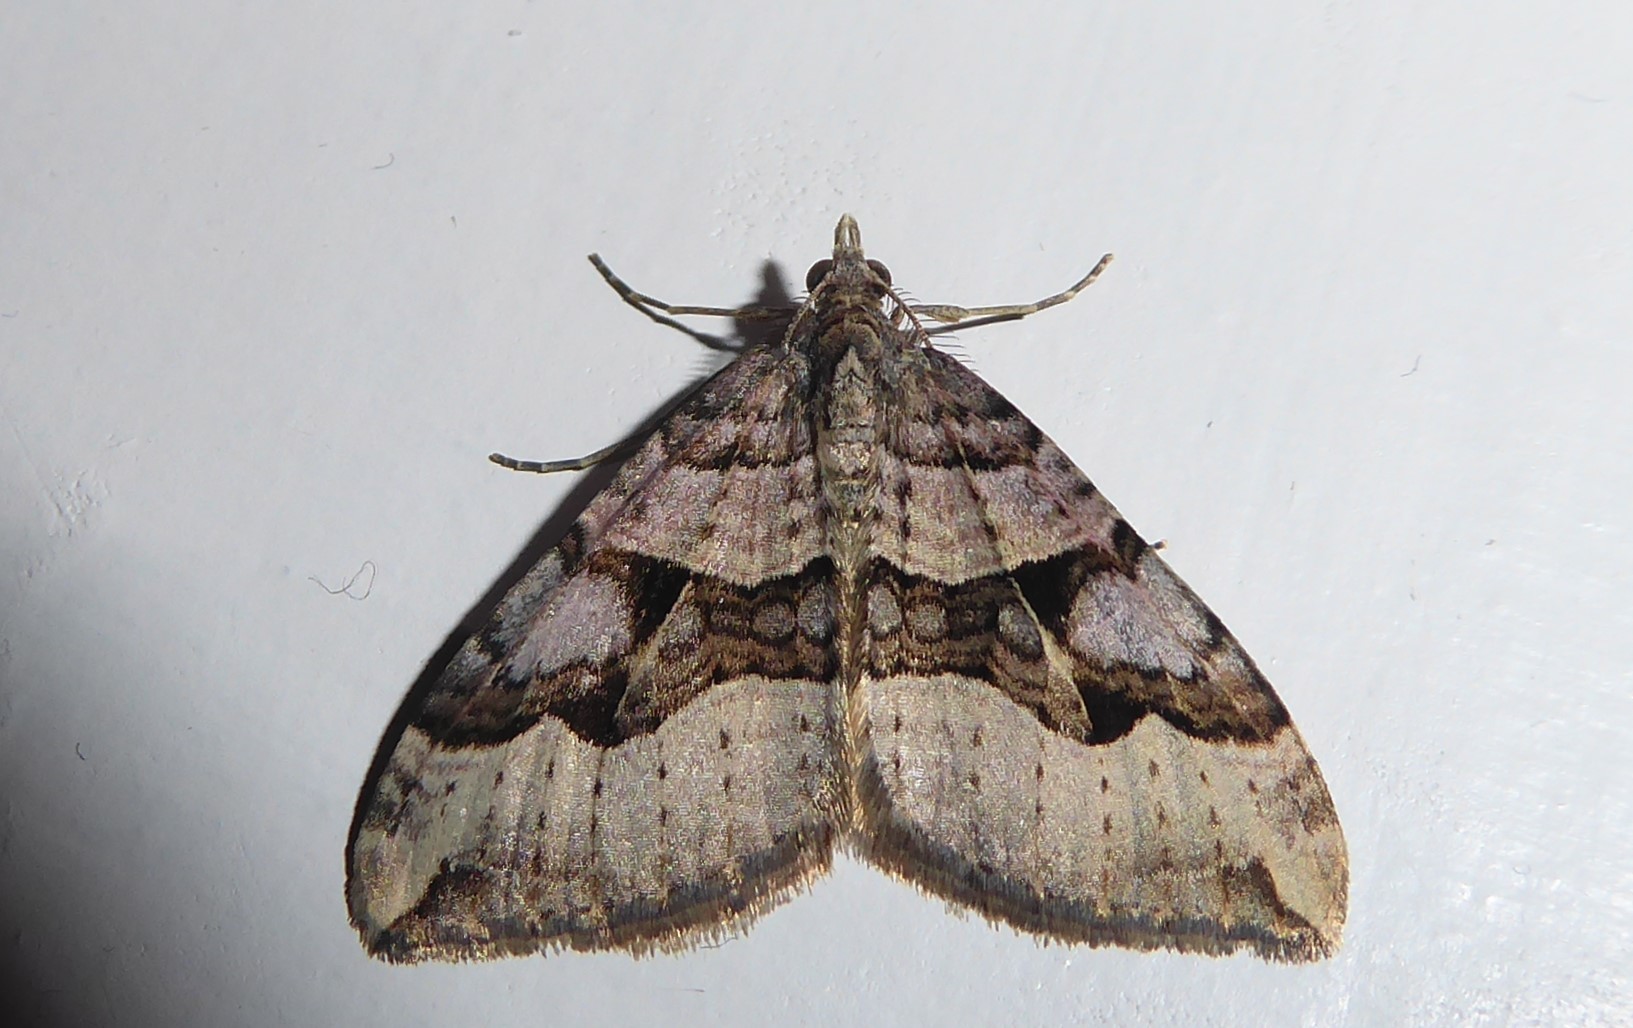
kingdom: Animalia
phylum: Arthropoda
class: Insecta
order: Lepidoptera
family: Geometridae
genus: Xanthorhoe
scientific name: Xanthorhoe semifissata
